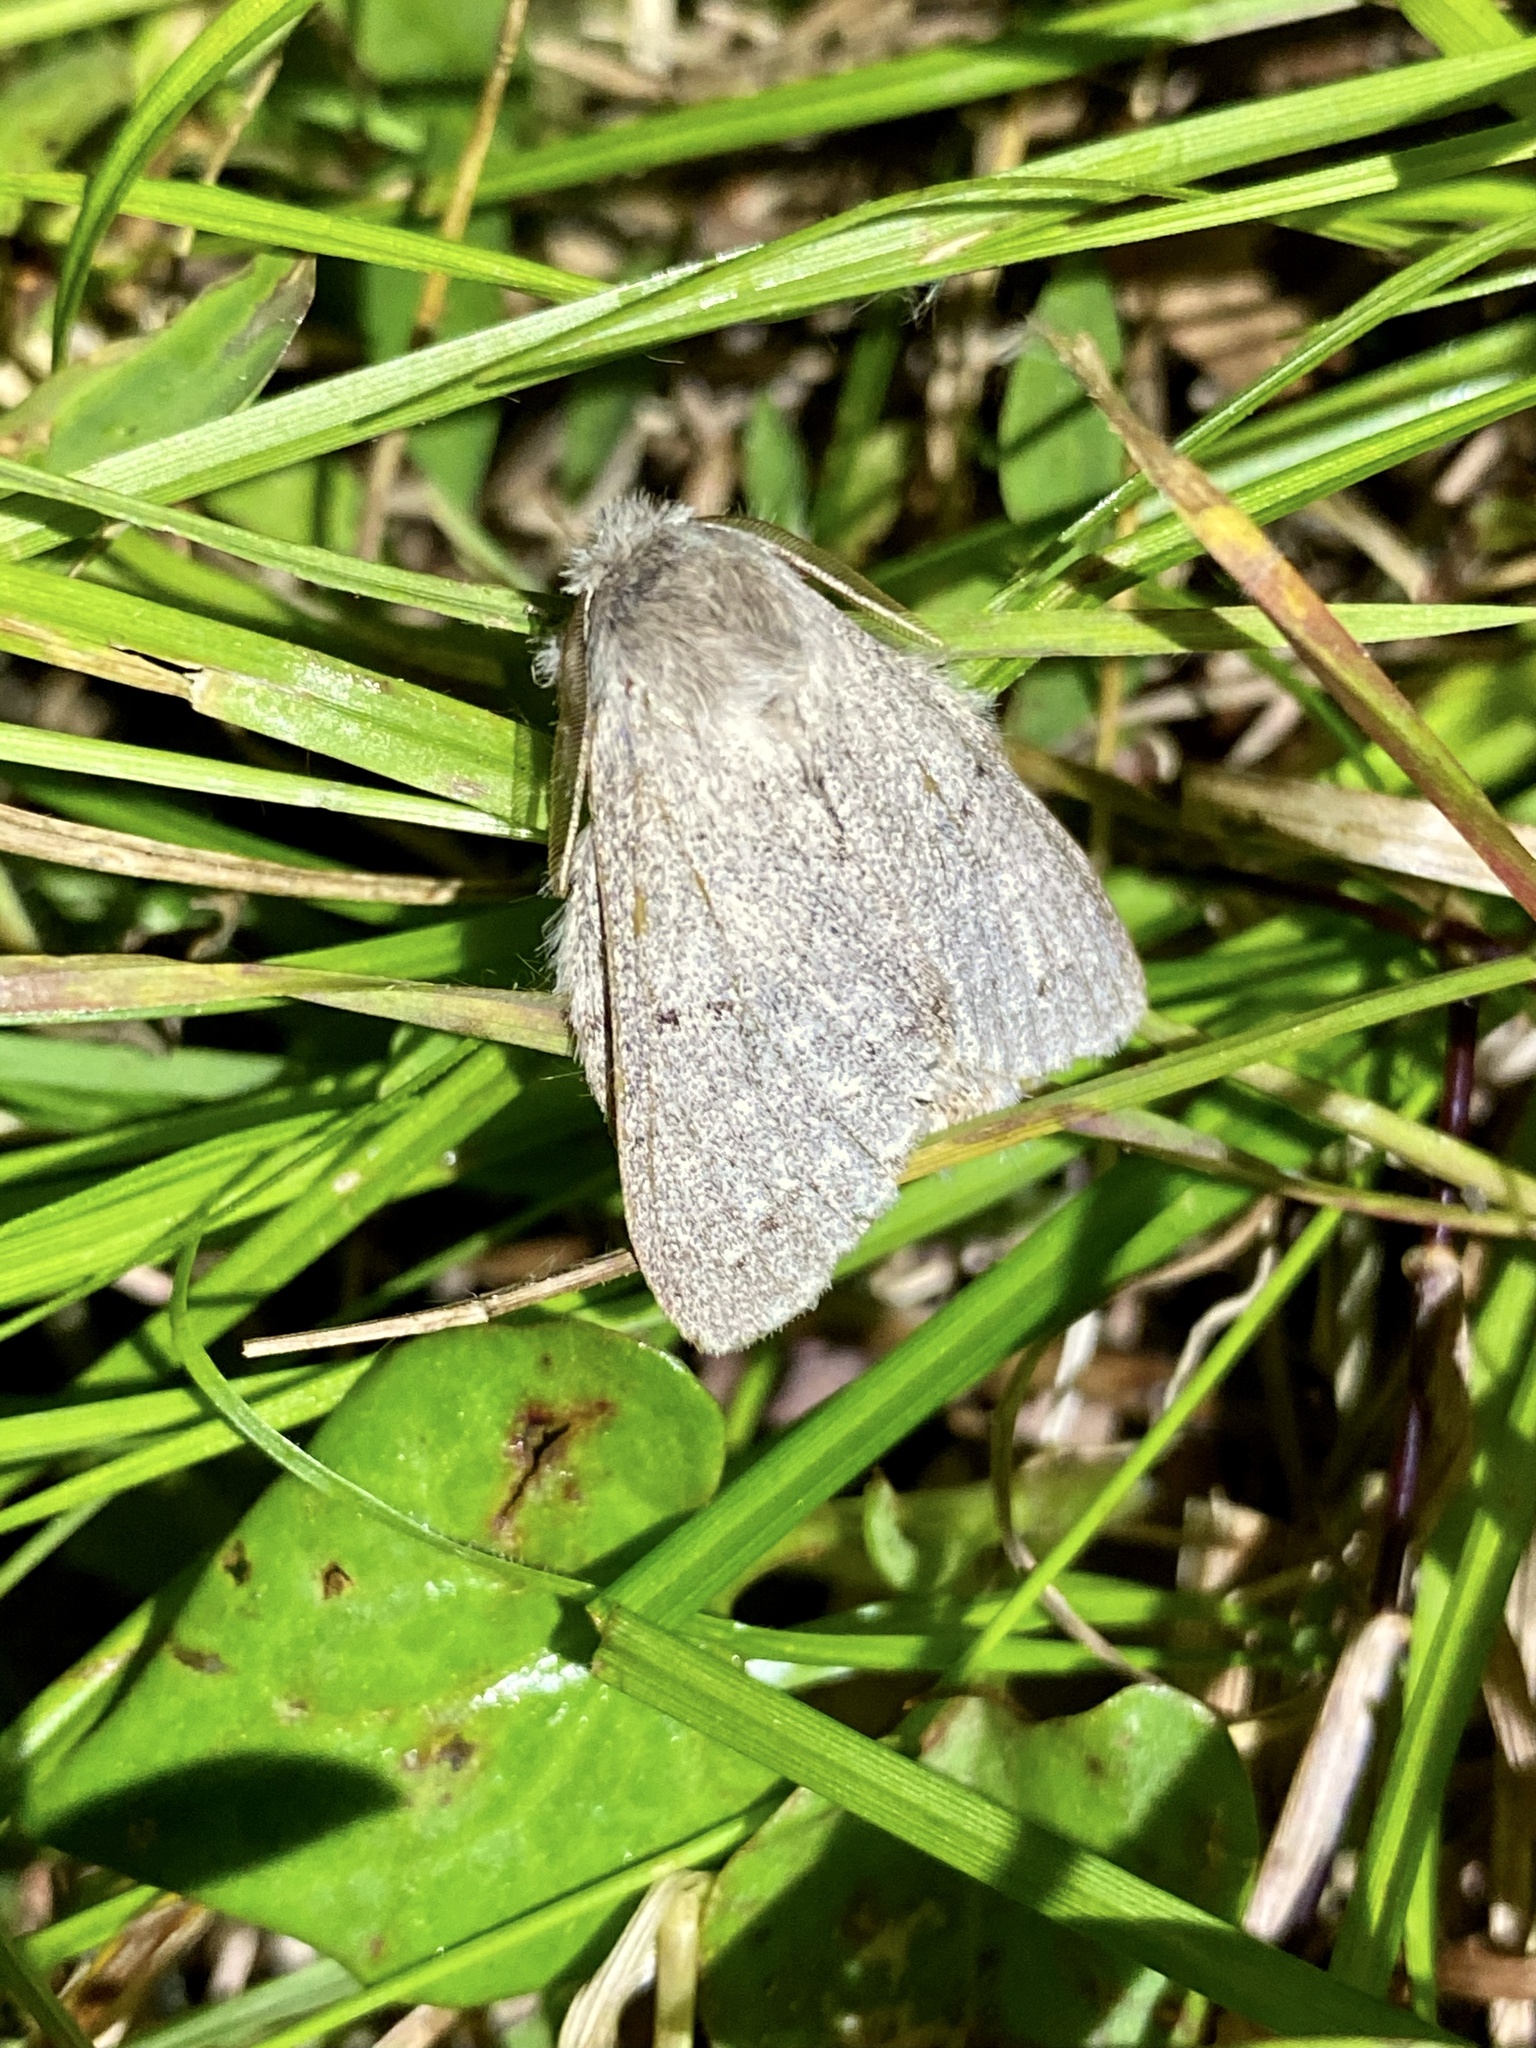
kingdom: Animalia
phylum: Arthropoda
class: Insecta
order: Lepidoptera
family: Notodontidae
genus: Cnethodonta
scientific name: Cnethodonta grisescens
